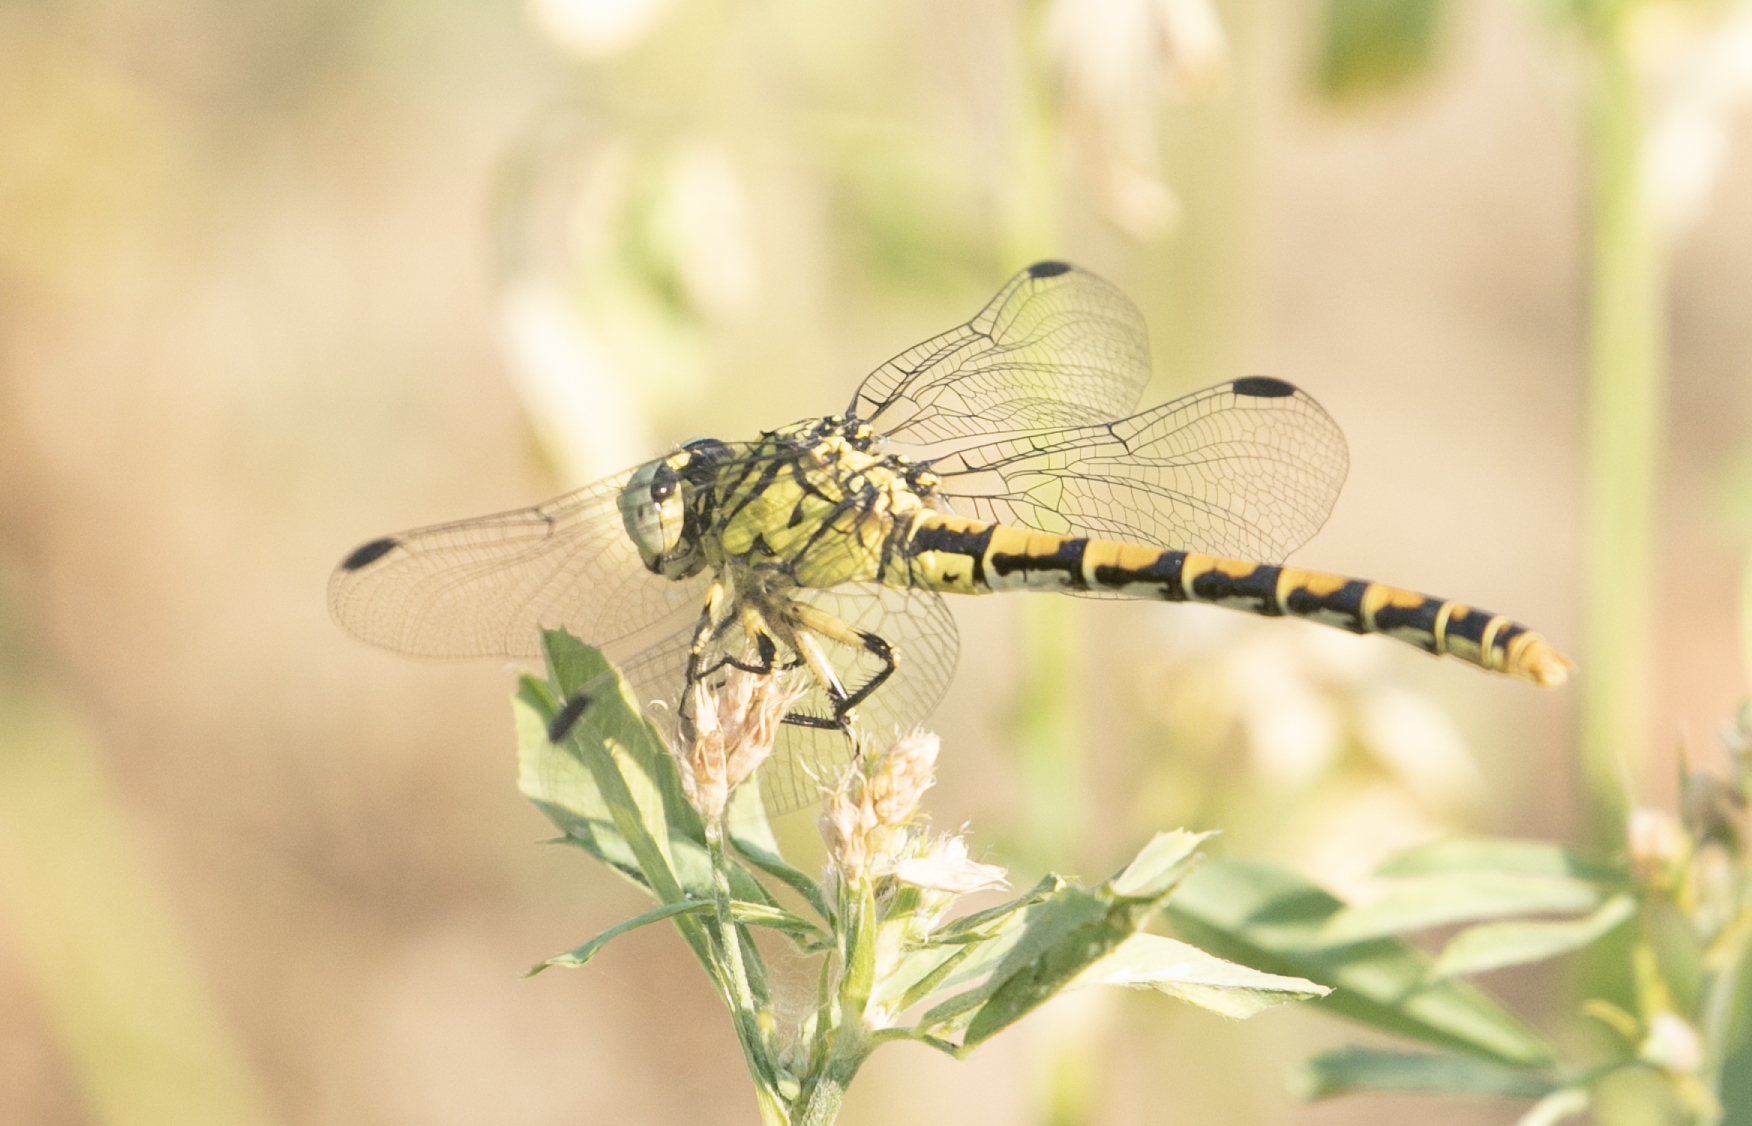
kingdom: Animalia
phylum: Arthropoda
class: Insecta
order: Odonata
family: Gomphidae
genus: Onychogomphus
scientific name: Onychogomphus forcipatus
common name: Small pincertail
